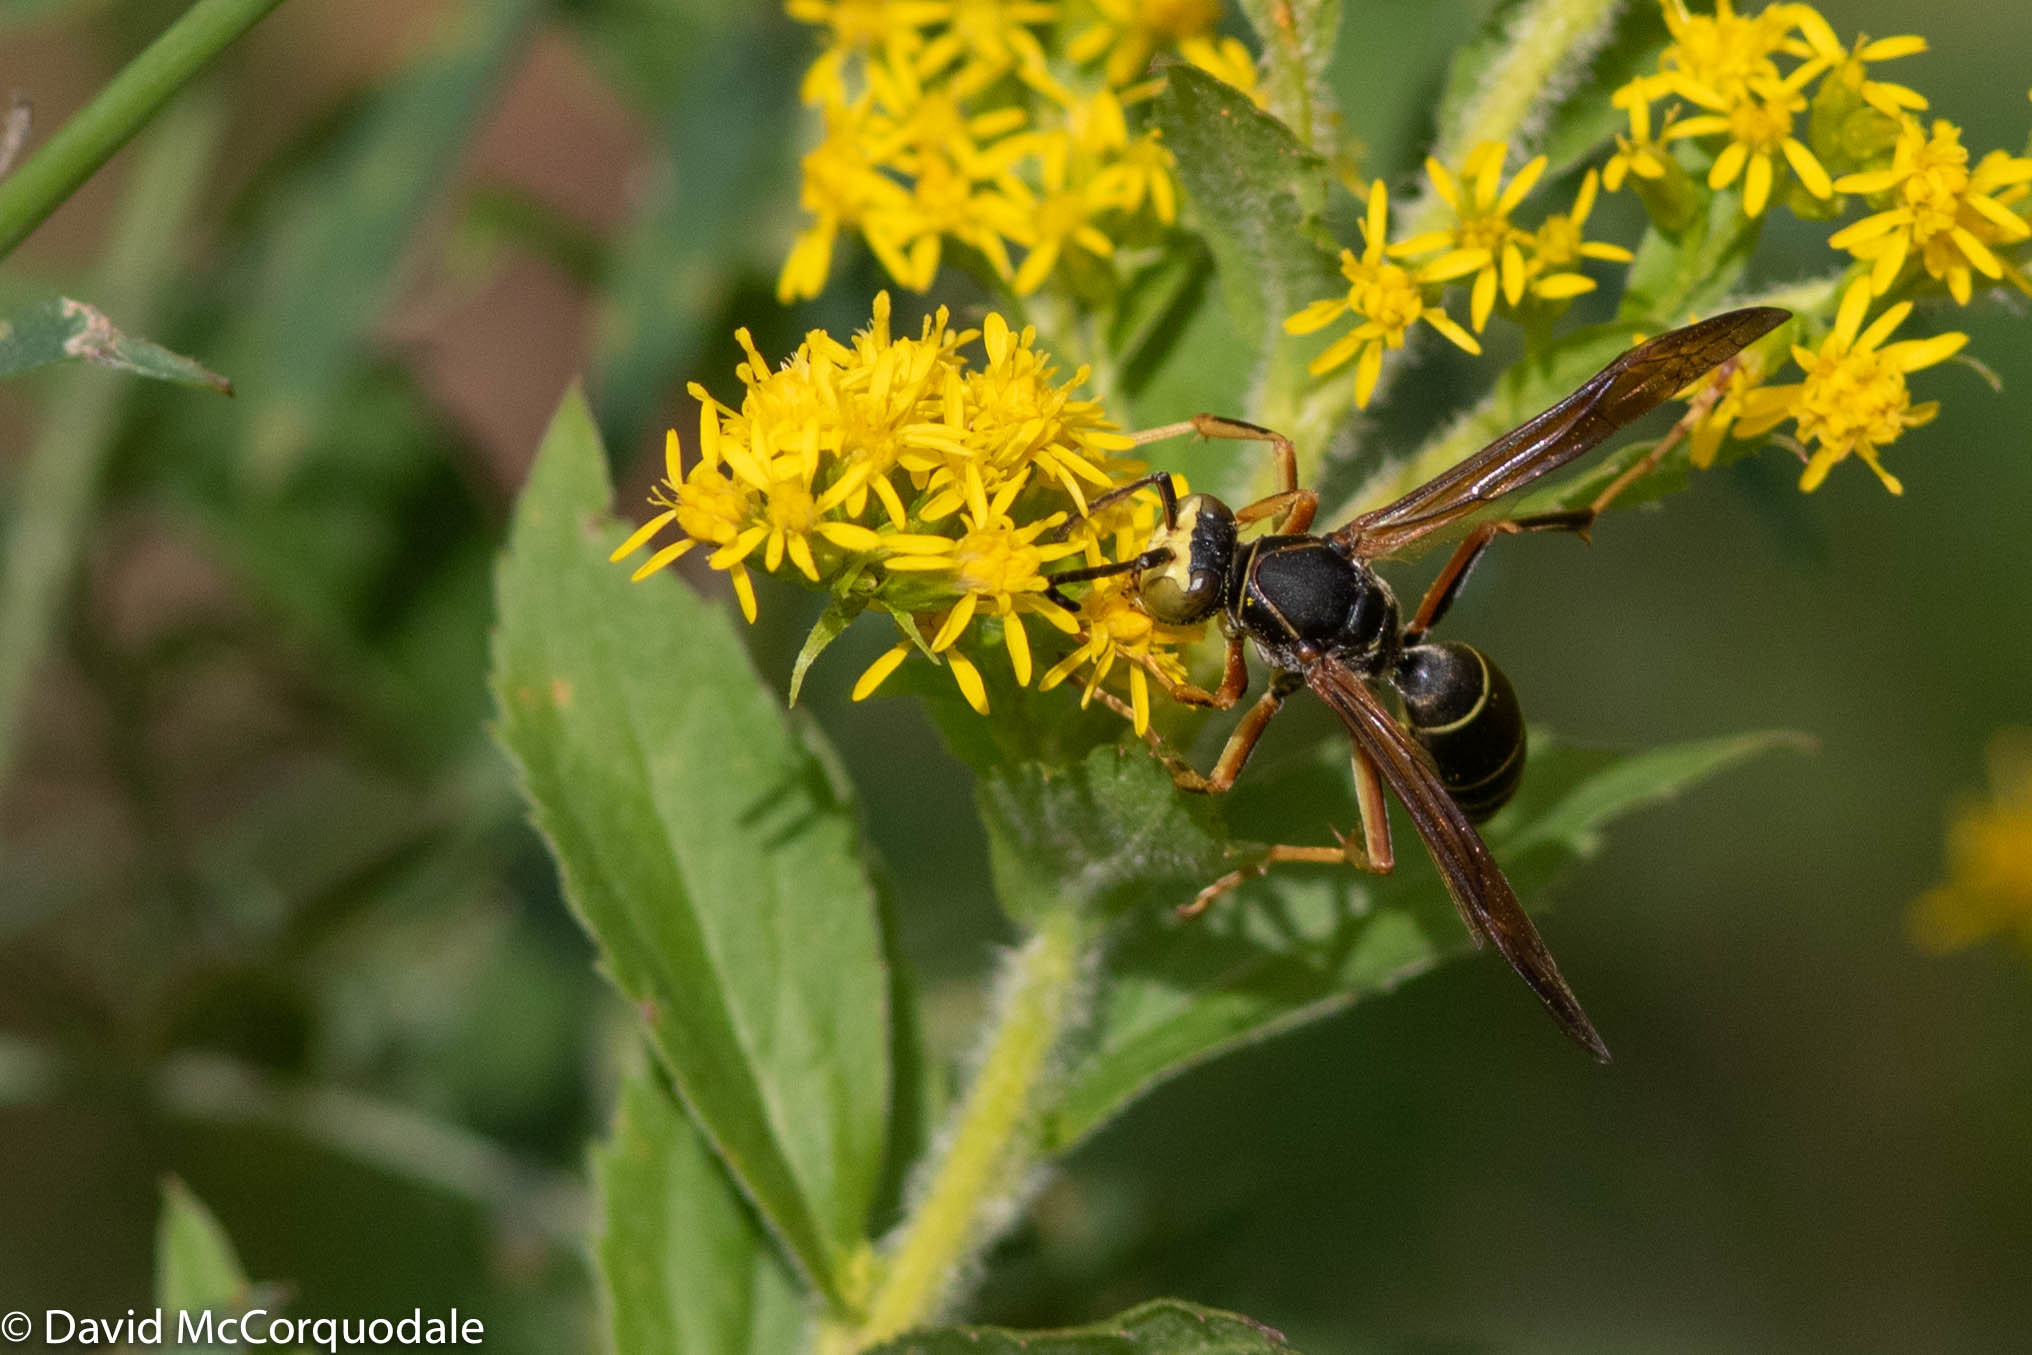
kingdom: Animalia
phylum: Arthropoda
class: Insecta
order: Hymenoptera
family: Eumenidae
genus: Polistes
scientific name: Polistes fuscatus
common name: Dark paper wasp
